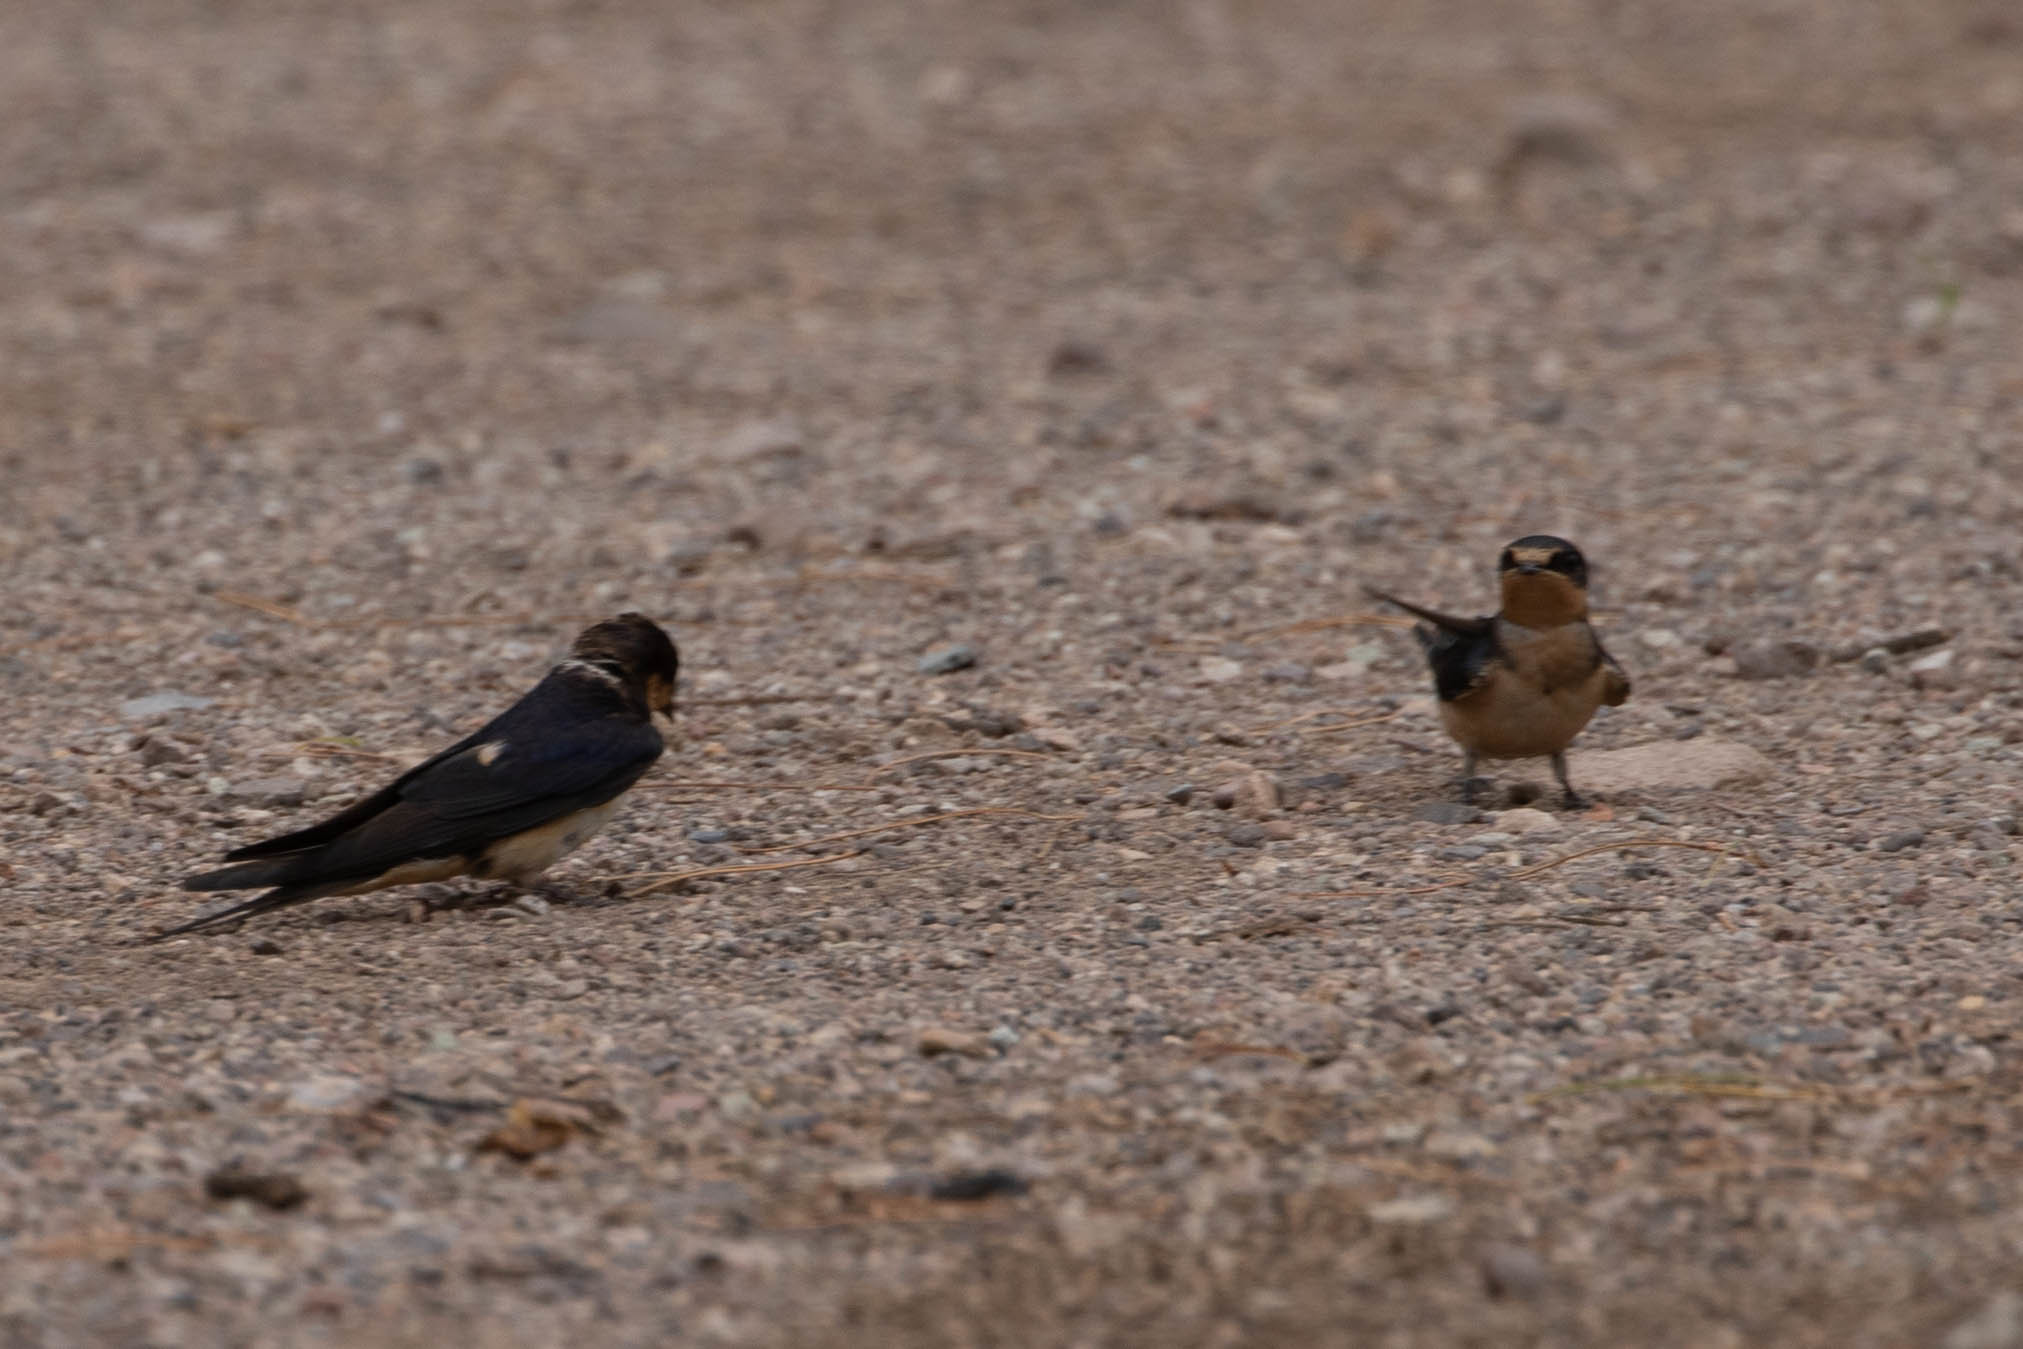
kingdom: Animalia
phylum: Chordata
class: Aves
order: Passeriformes
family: Hirundinidae
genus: Hirundo
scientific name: Hirundo rustica
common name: Barn swallow
